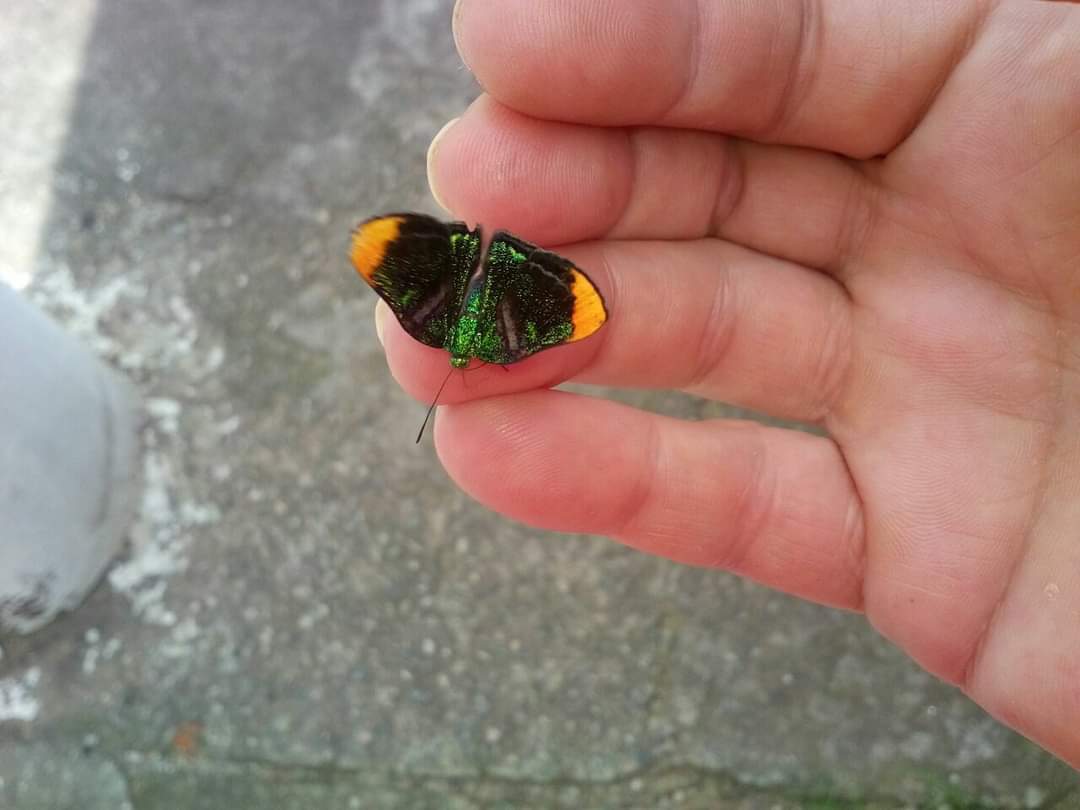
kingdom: Animalia
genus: Caria
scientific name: Caria plutargus
